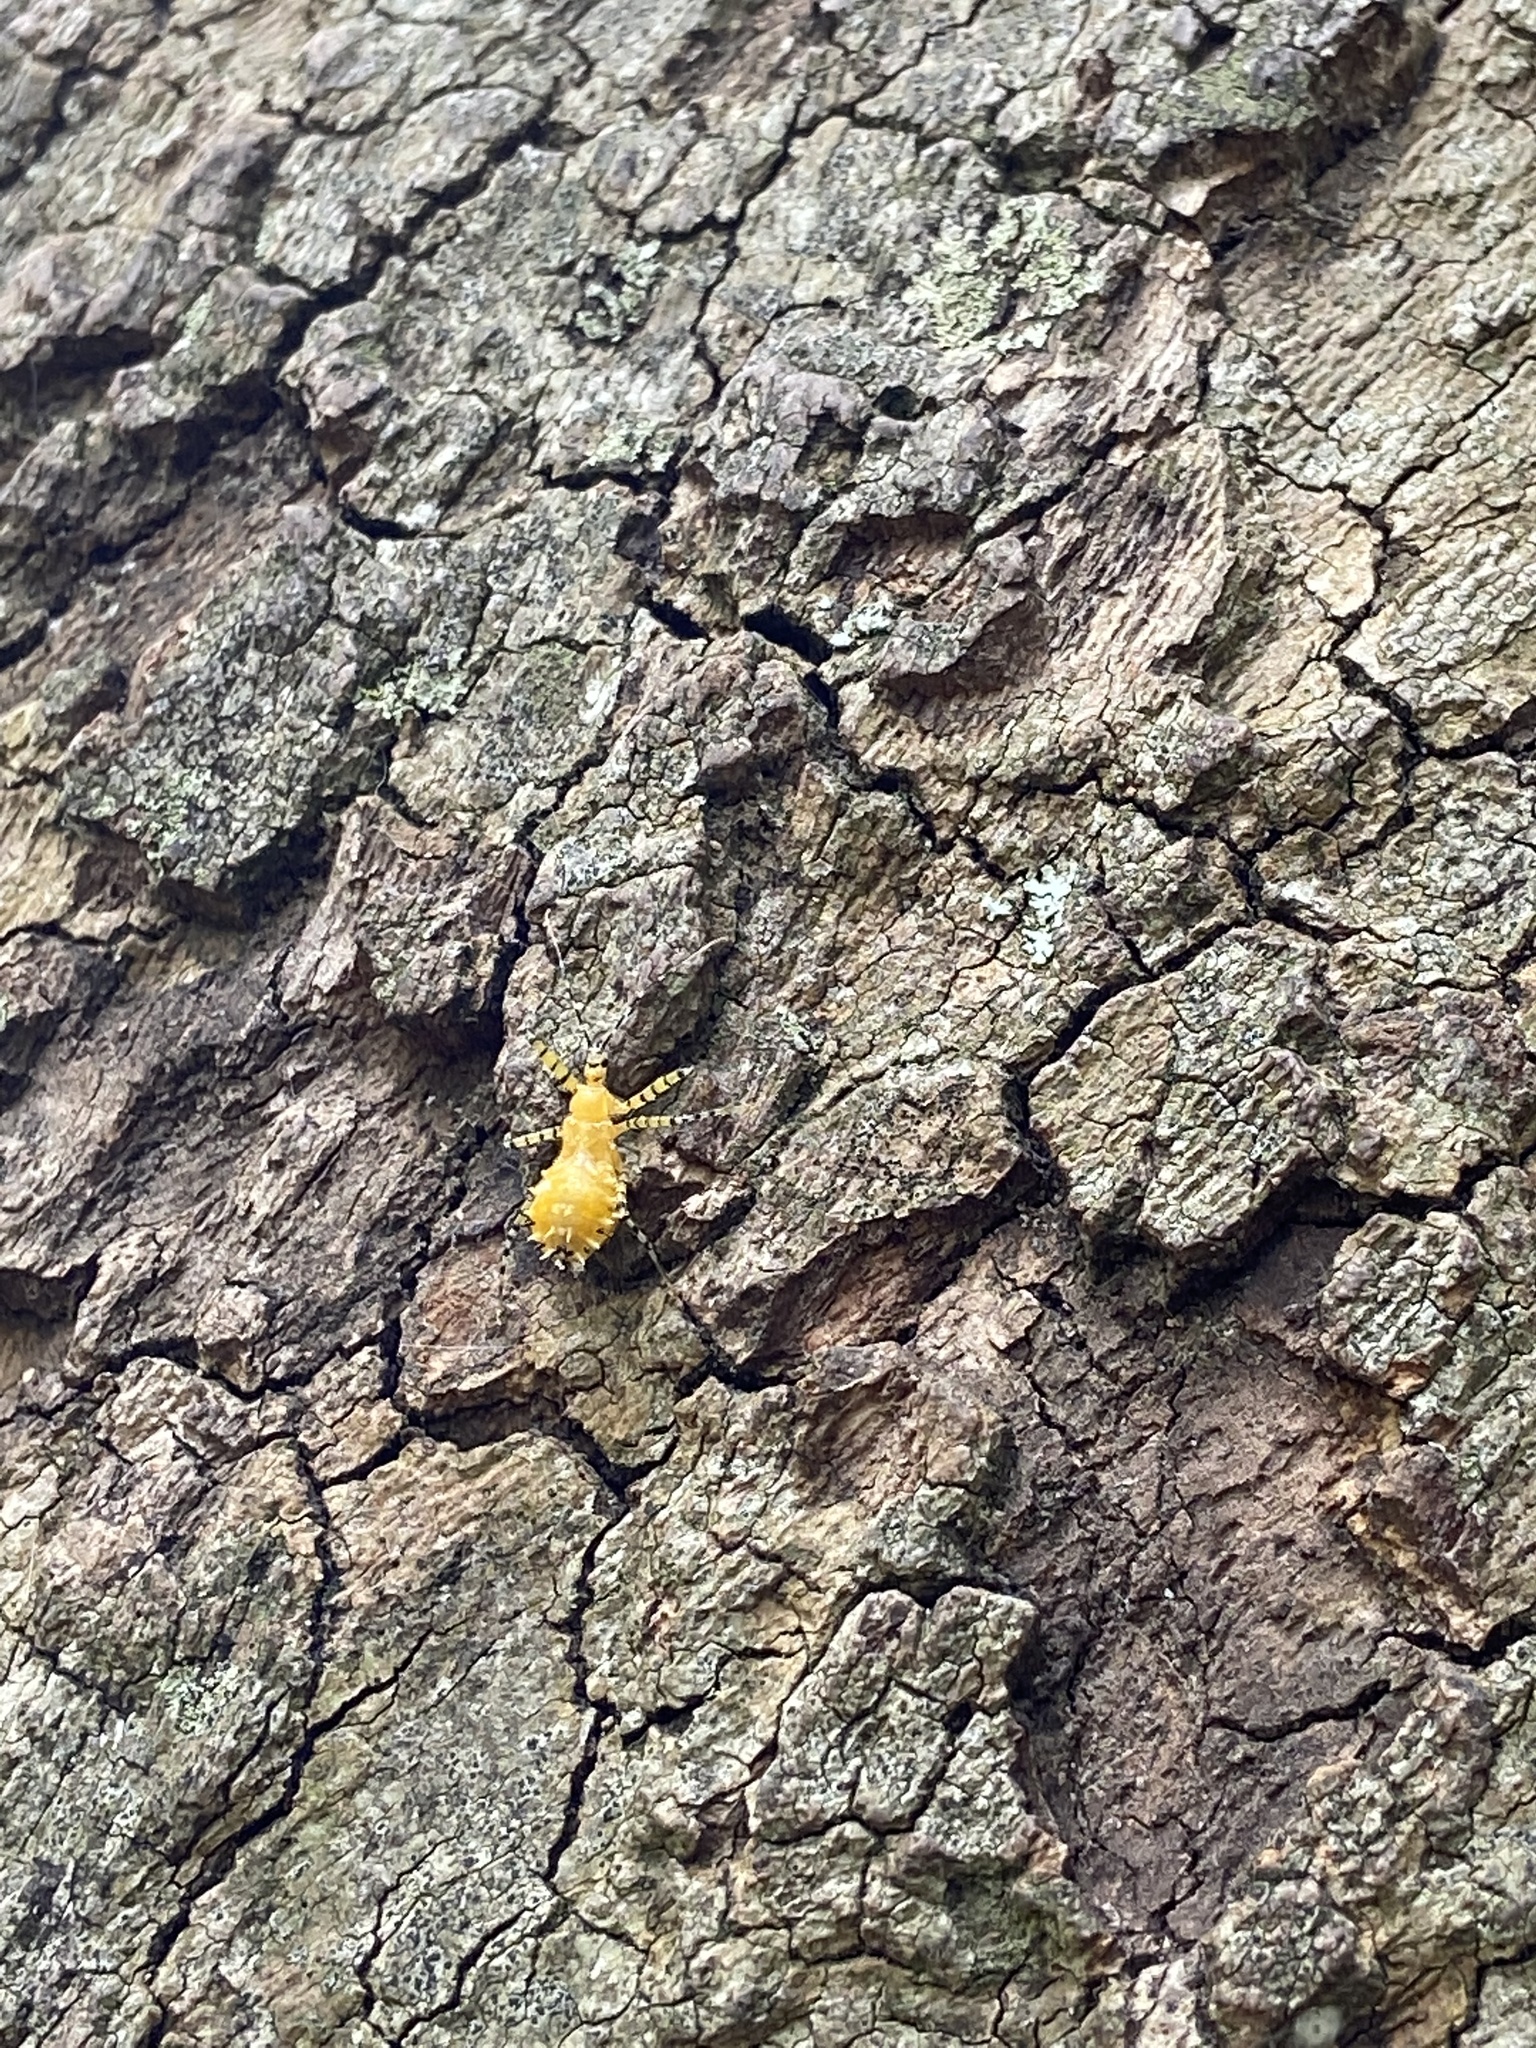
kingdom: Animalia
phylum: Arthropoda
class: Insecta
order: Hemiptera
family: Reduviidae
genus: Pselliopus
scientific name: Pselliopus barberi
